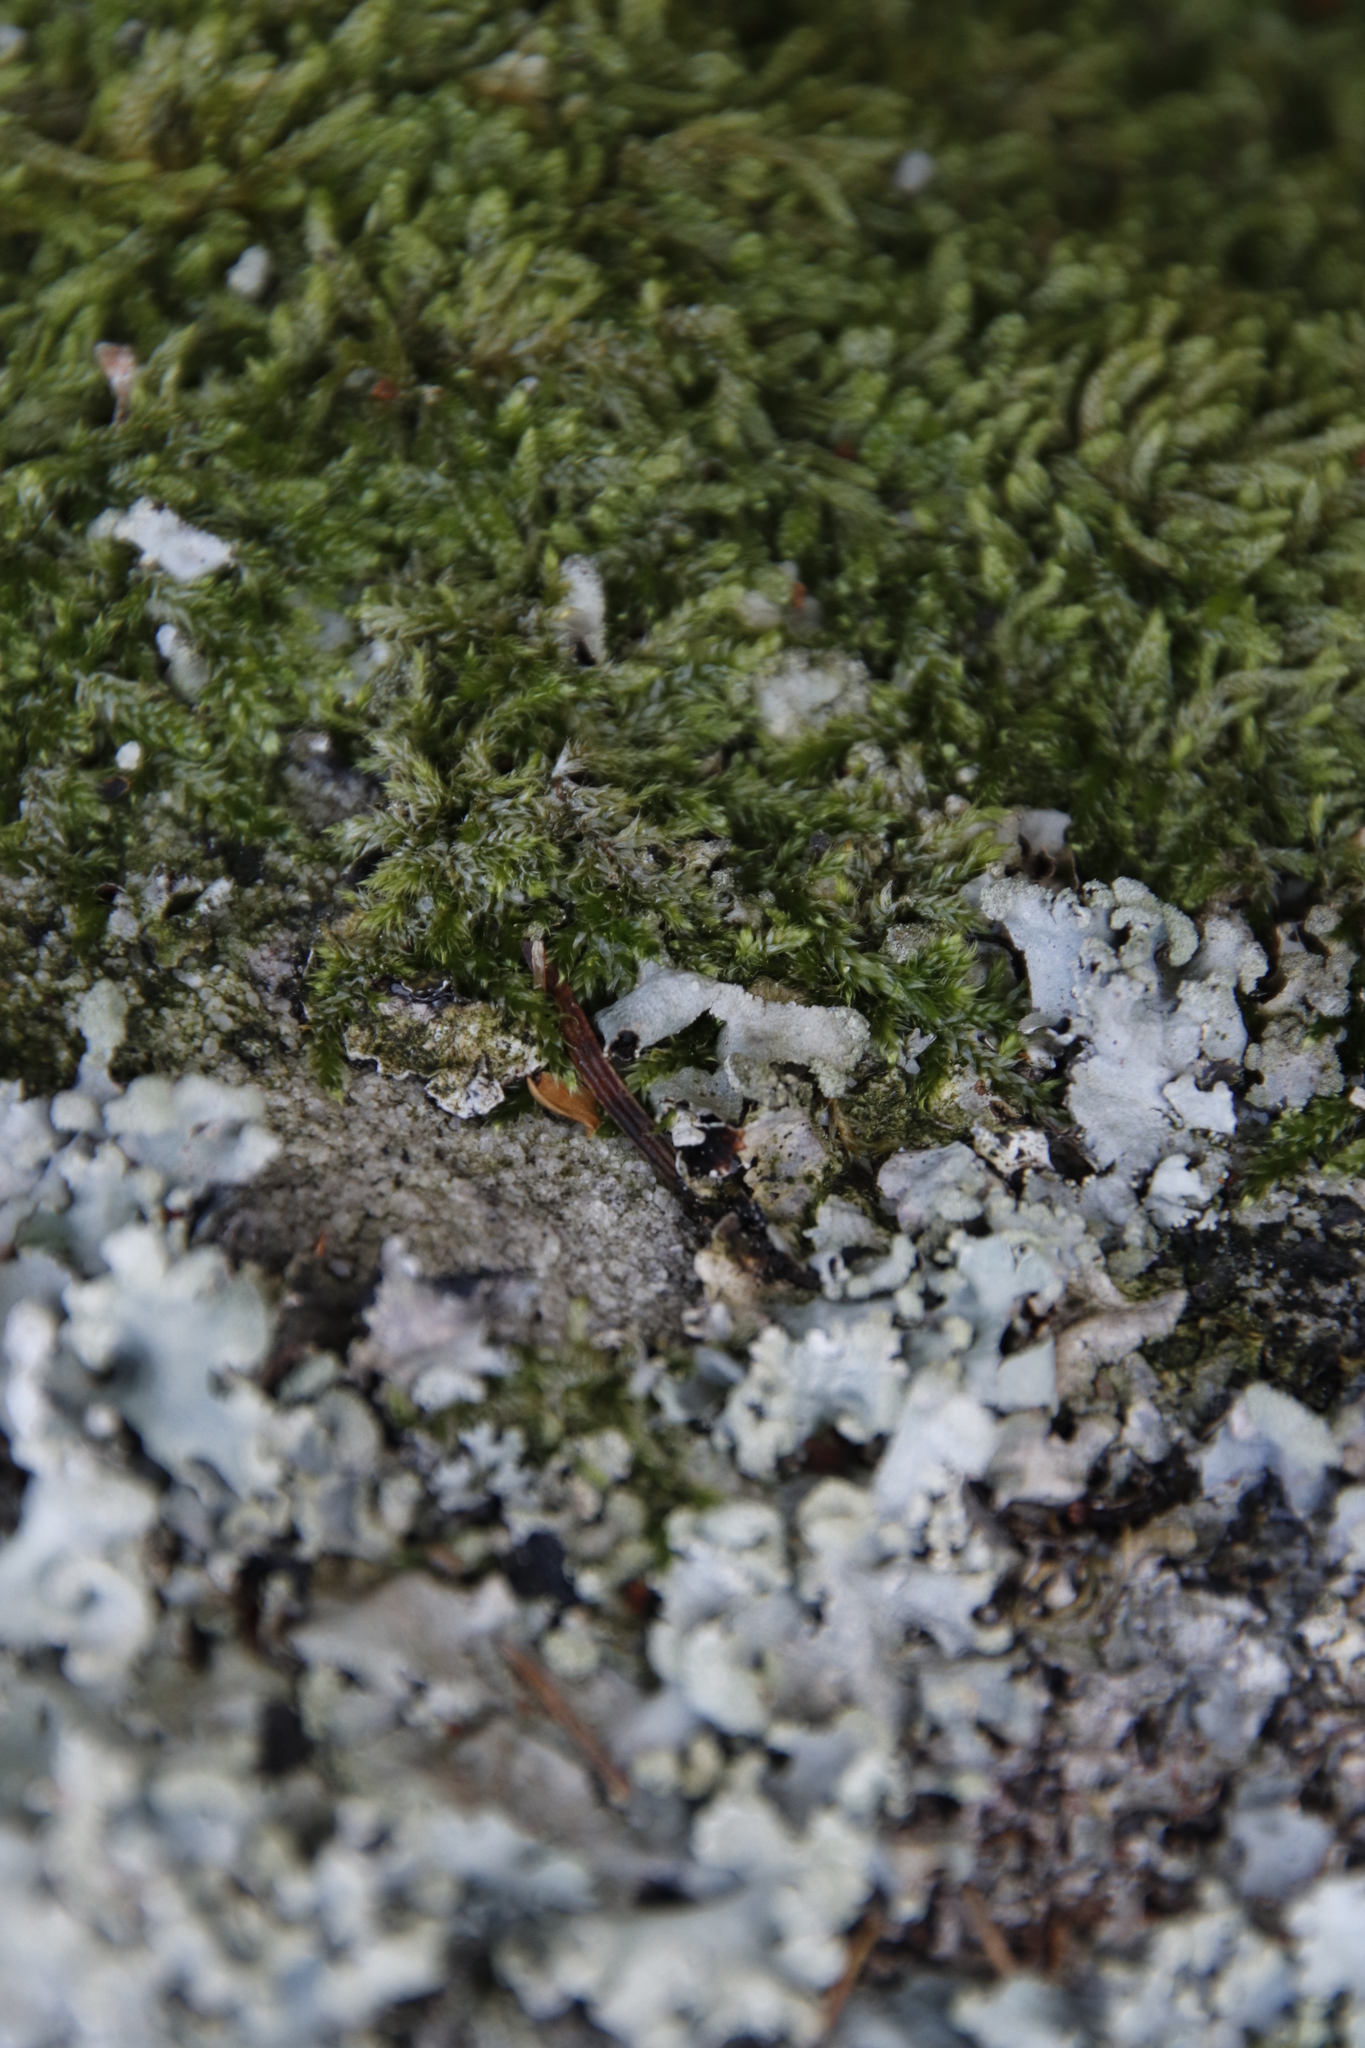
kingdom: Plantae
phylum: Bryophyta
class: Bryopsida
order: Hypnales
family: Hypnaceae
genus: Hypnum
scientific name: Hypnum cupressiforme
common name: Cypress-leaved plait-moss
